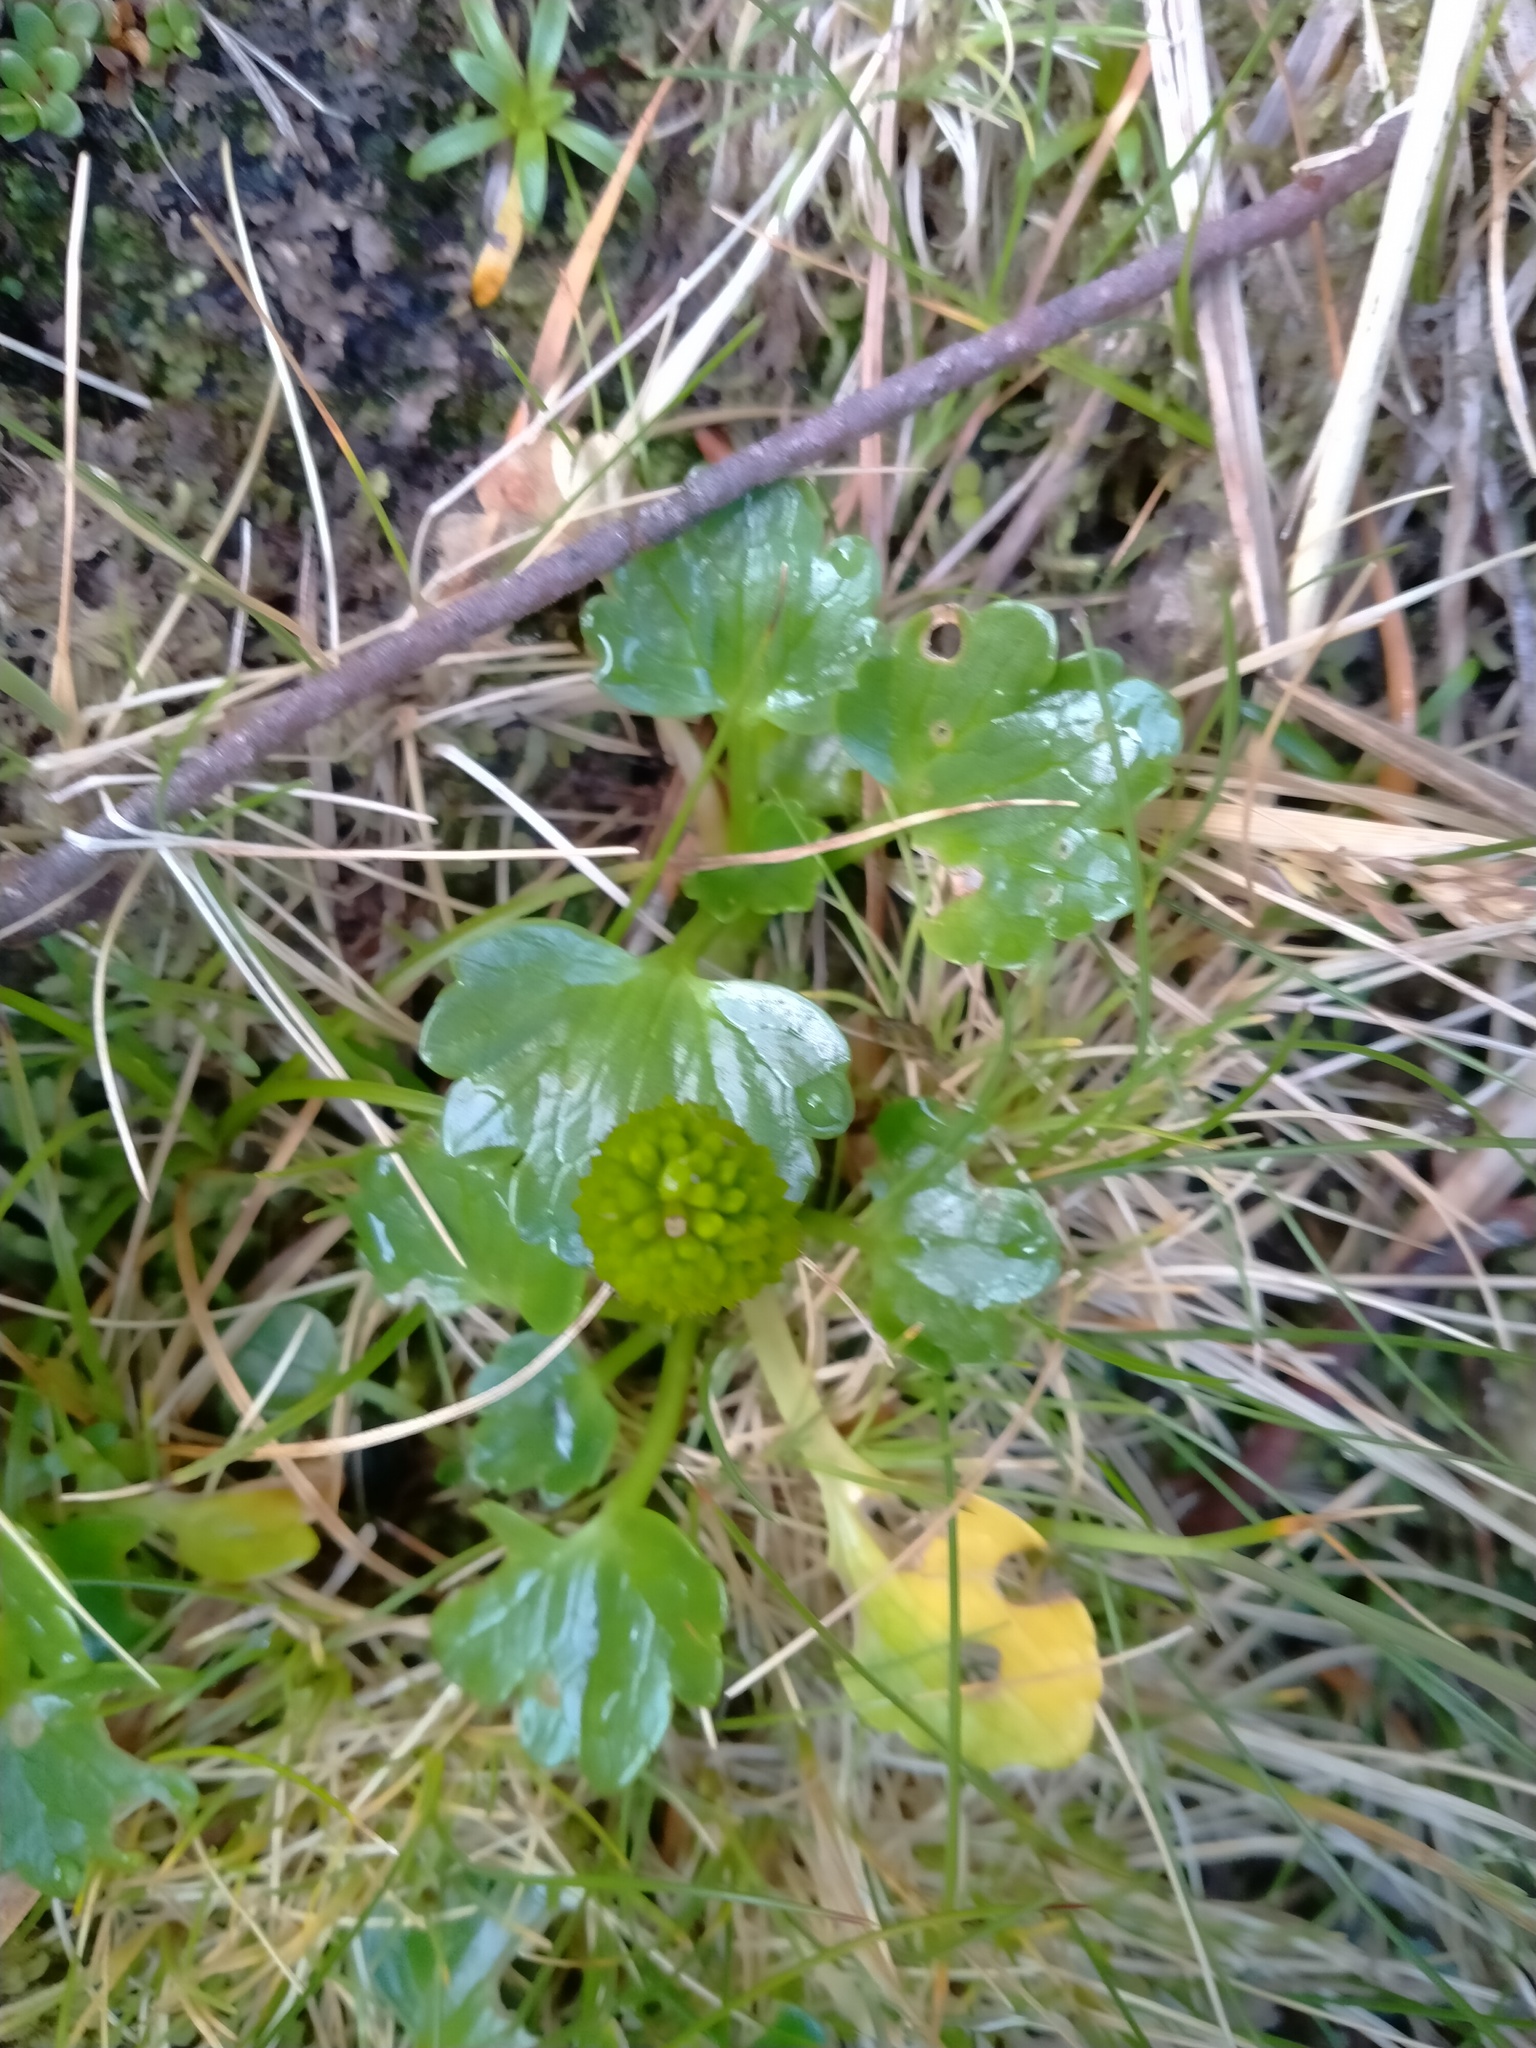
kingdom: Plantae
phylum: Tracheophyta
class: Magnoliopsida
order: Ranunculales
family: Ranunculaceae
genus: Ranunculus
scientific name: Ranunculus pinguis
